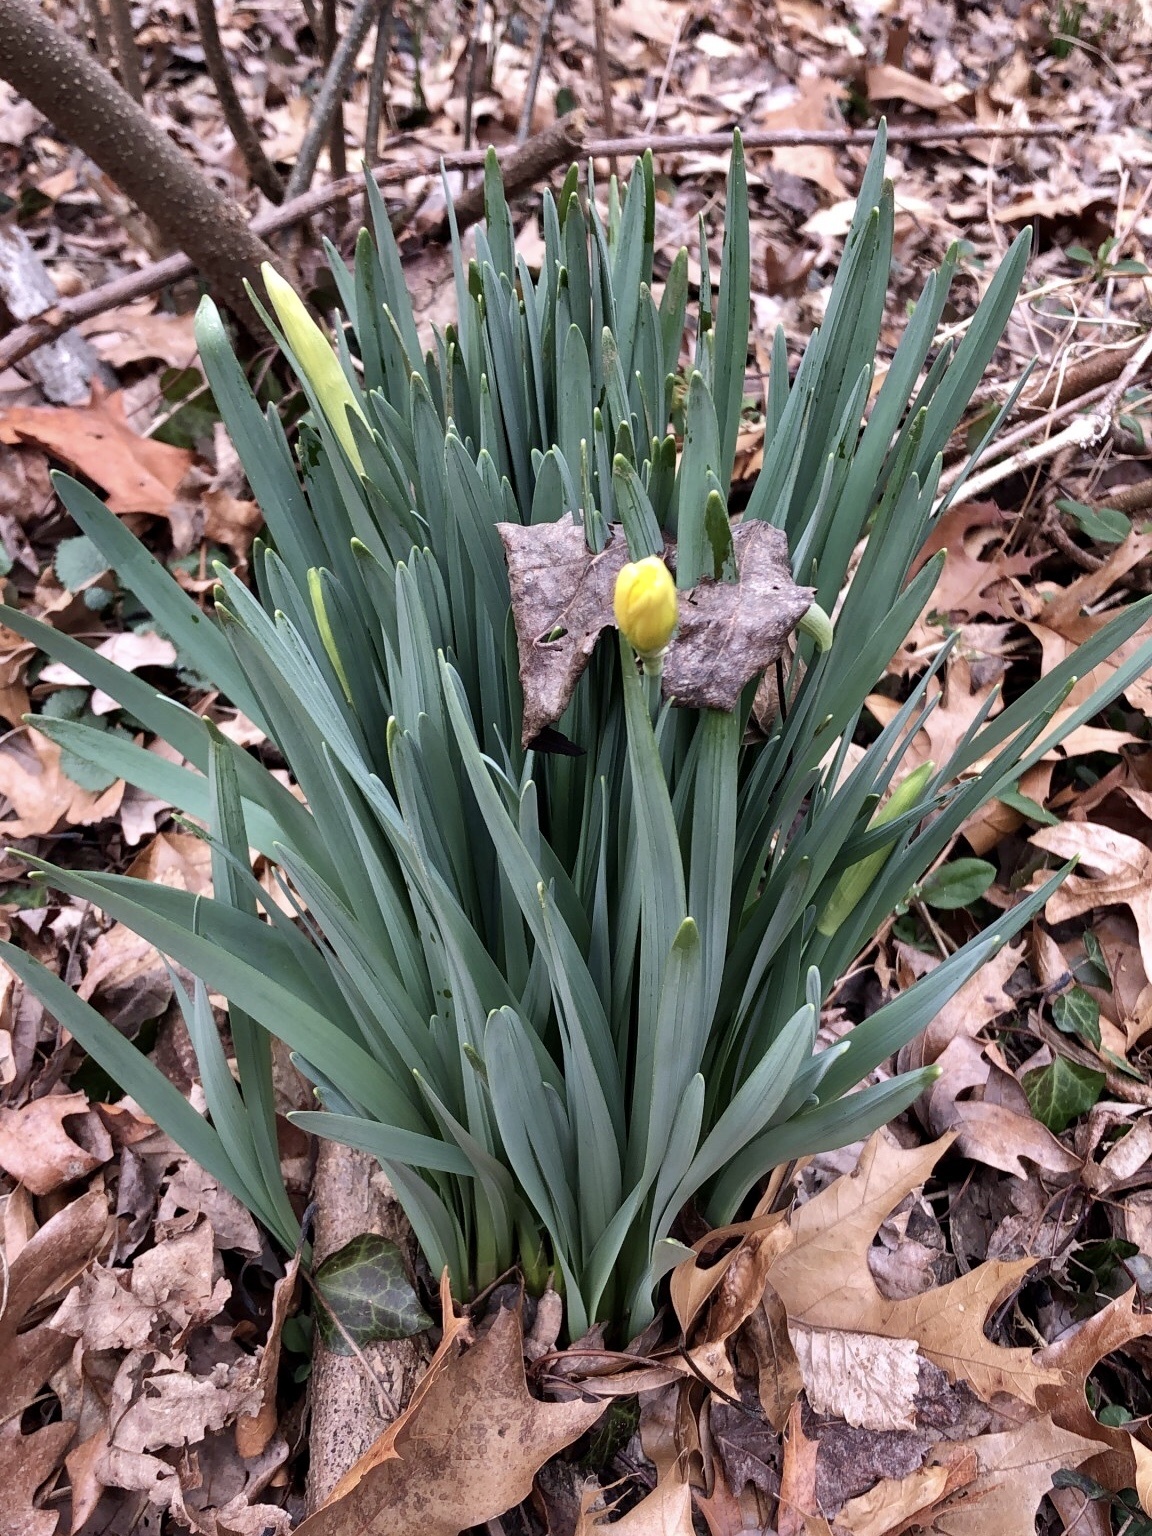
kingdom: Plantae
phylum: Tracheophyta
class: Liliopsida
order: Asparagales
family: Amaryllidaceae
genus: Narcissus
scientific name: Narcissus
